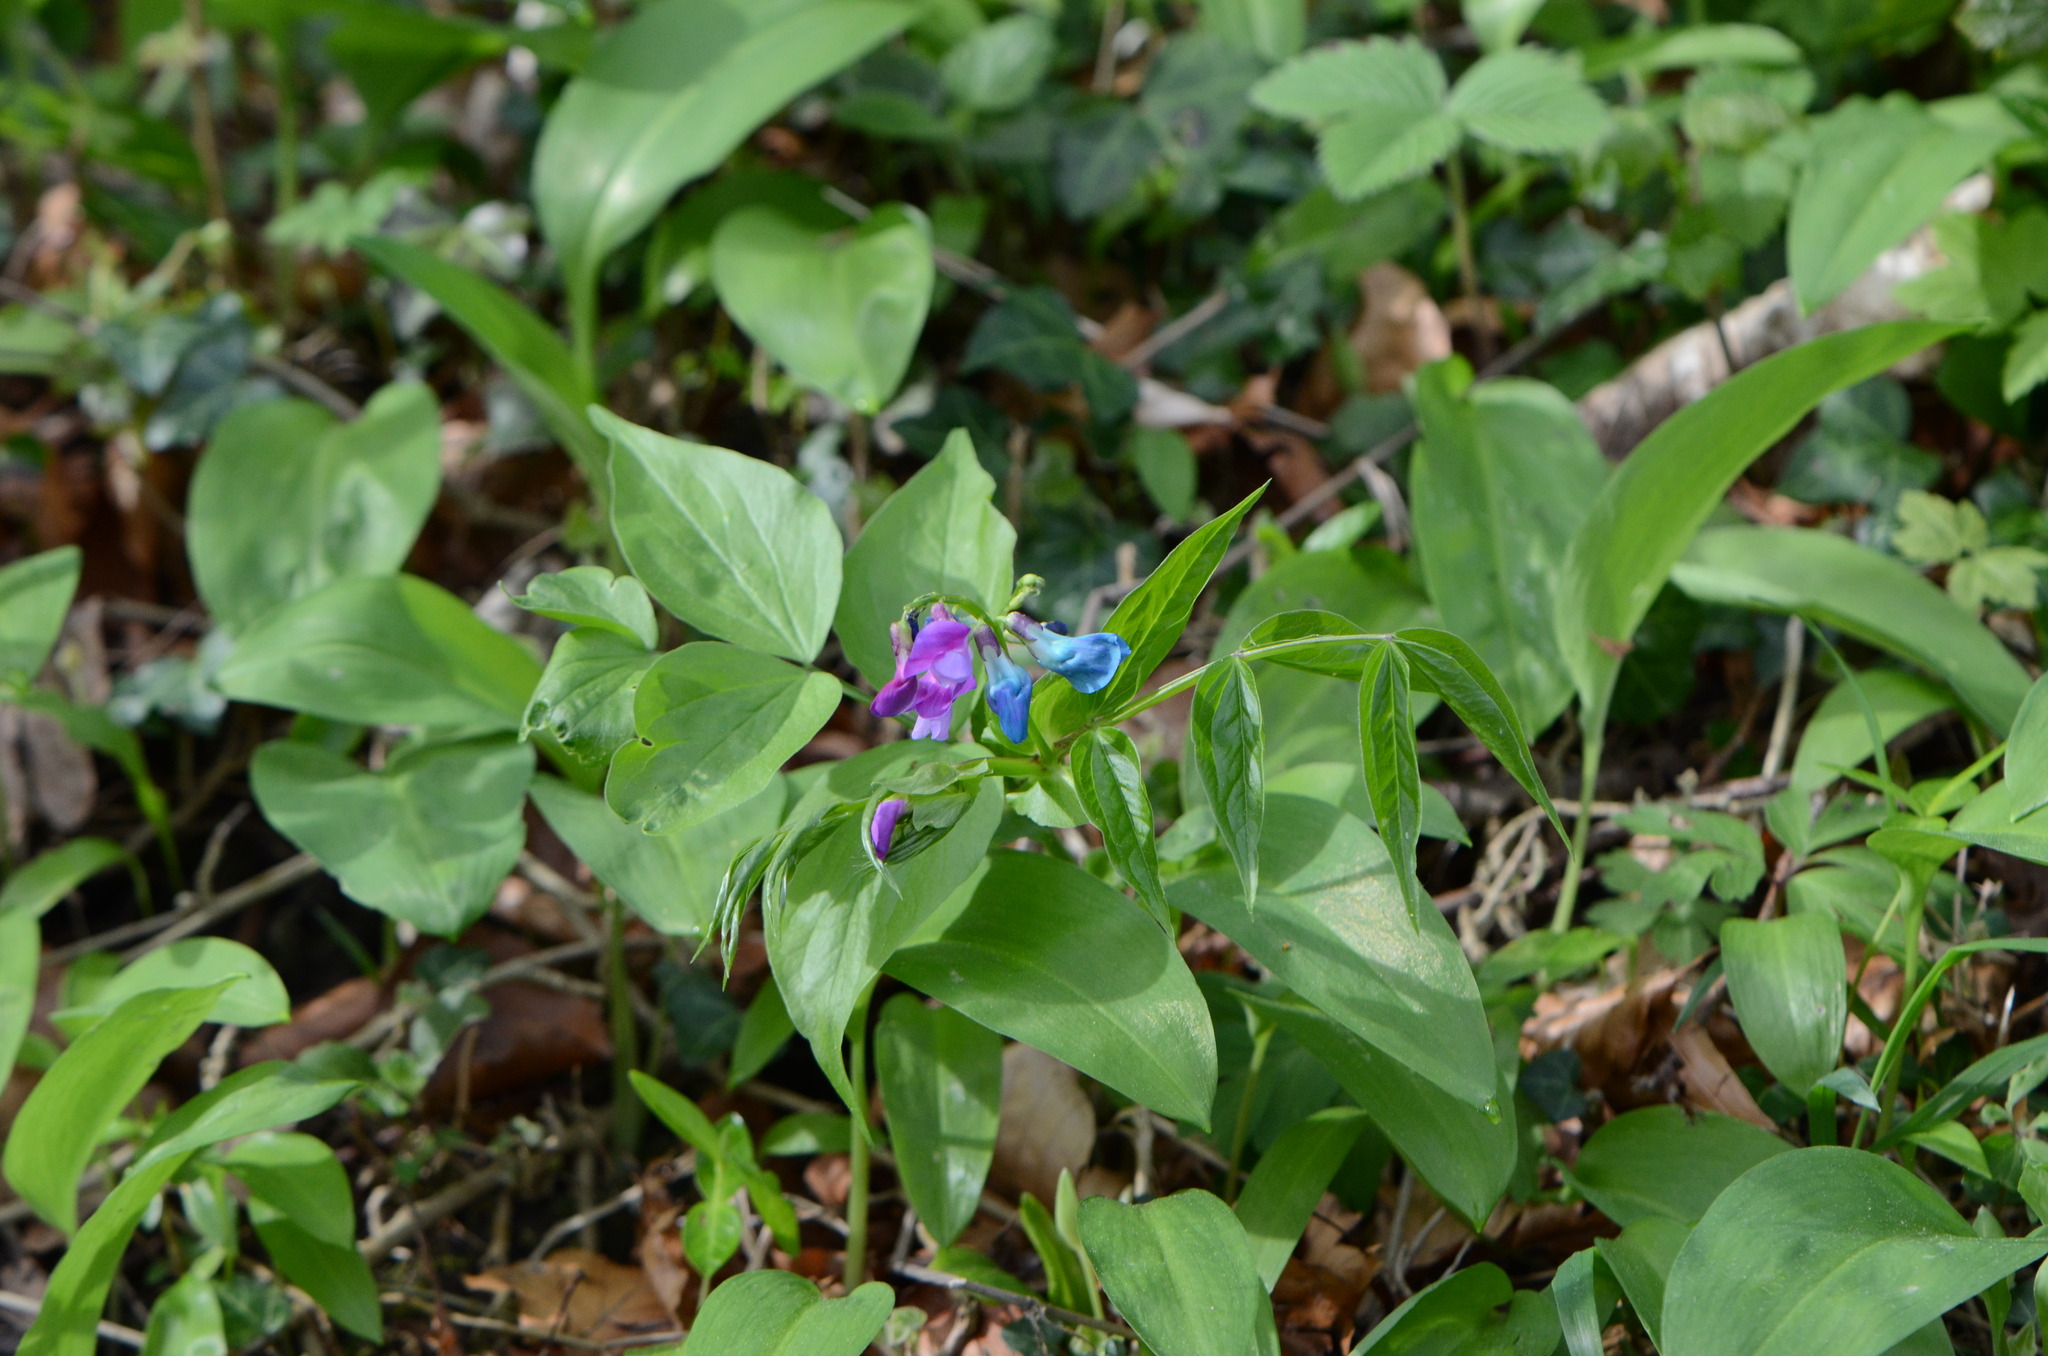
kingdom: Plantae
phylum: Tracheophyta
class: Magnoliopsida
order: Fabales
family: Fabaceae
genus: Lathyrus
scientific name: Lathyrus vernus
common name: Spring pea
